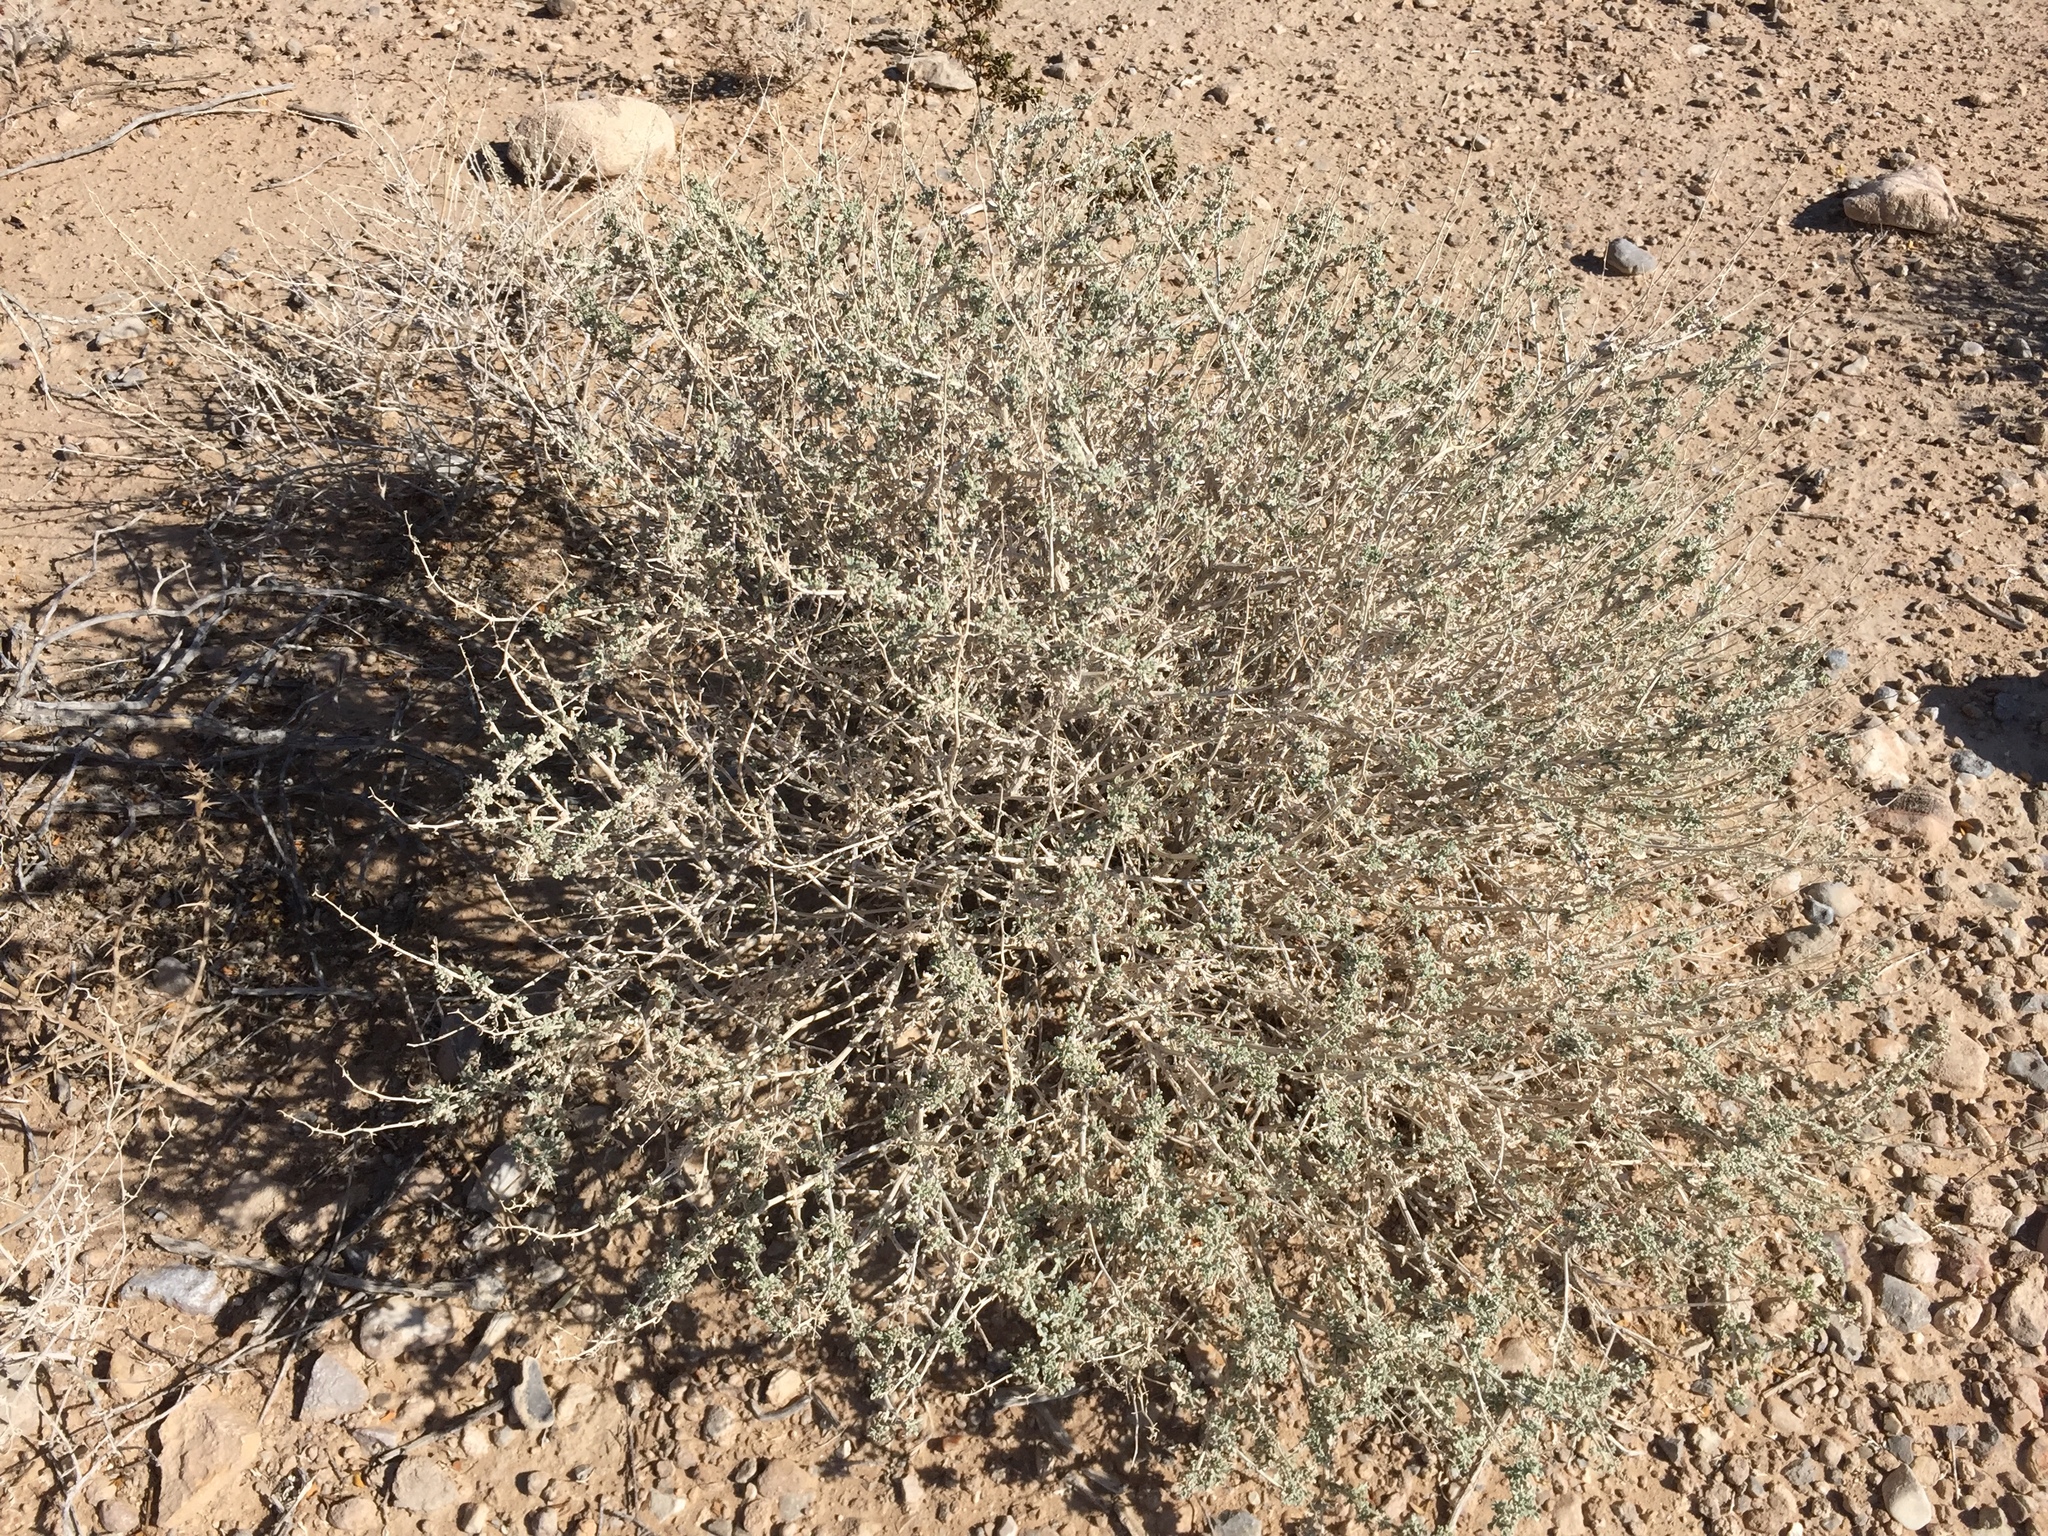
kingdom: Plantae
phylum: Tracheophyta
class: Magnoliopsida
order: Asterales
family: Asteraceae
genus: Ambrosia
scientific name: Ambrosia dumosa
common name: Bur-sage
